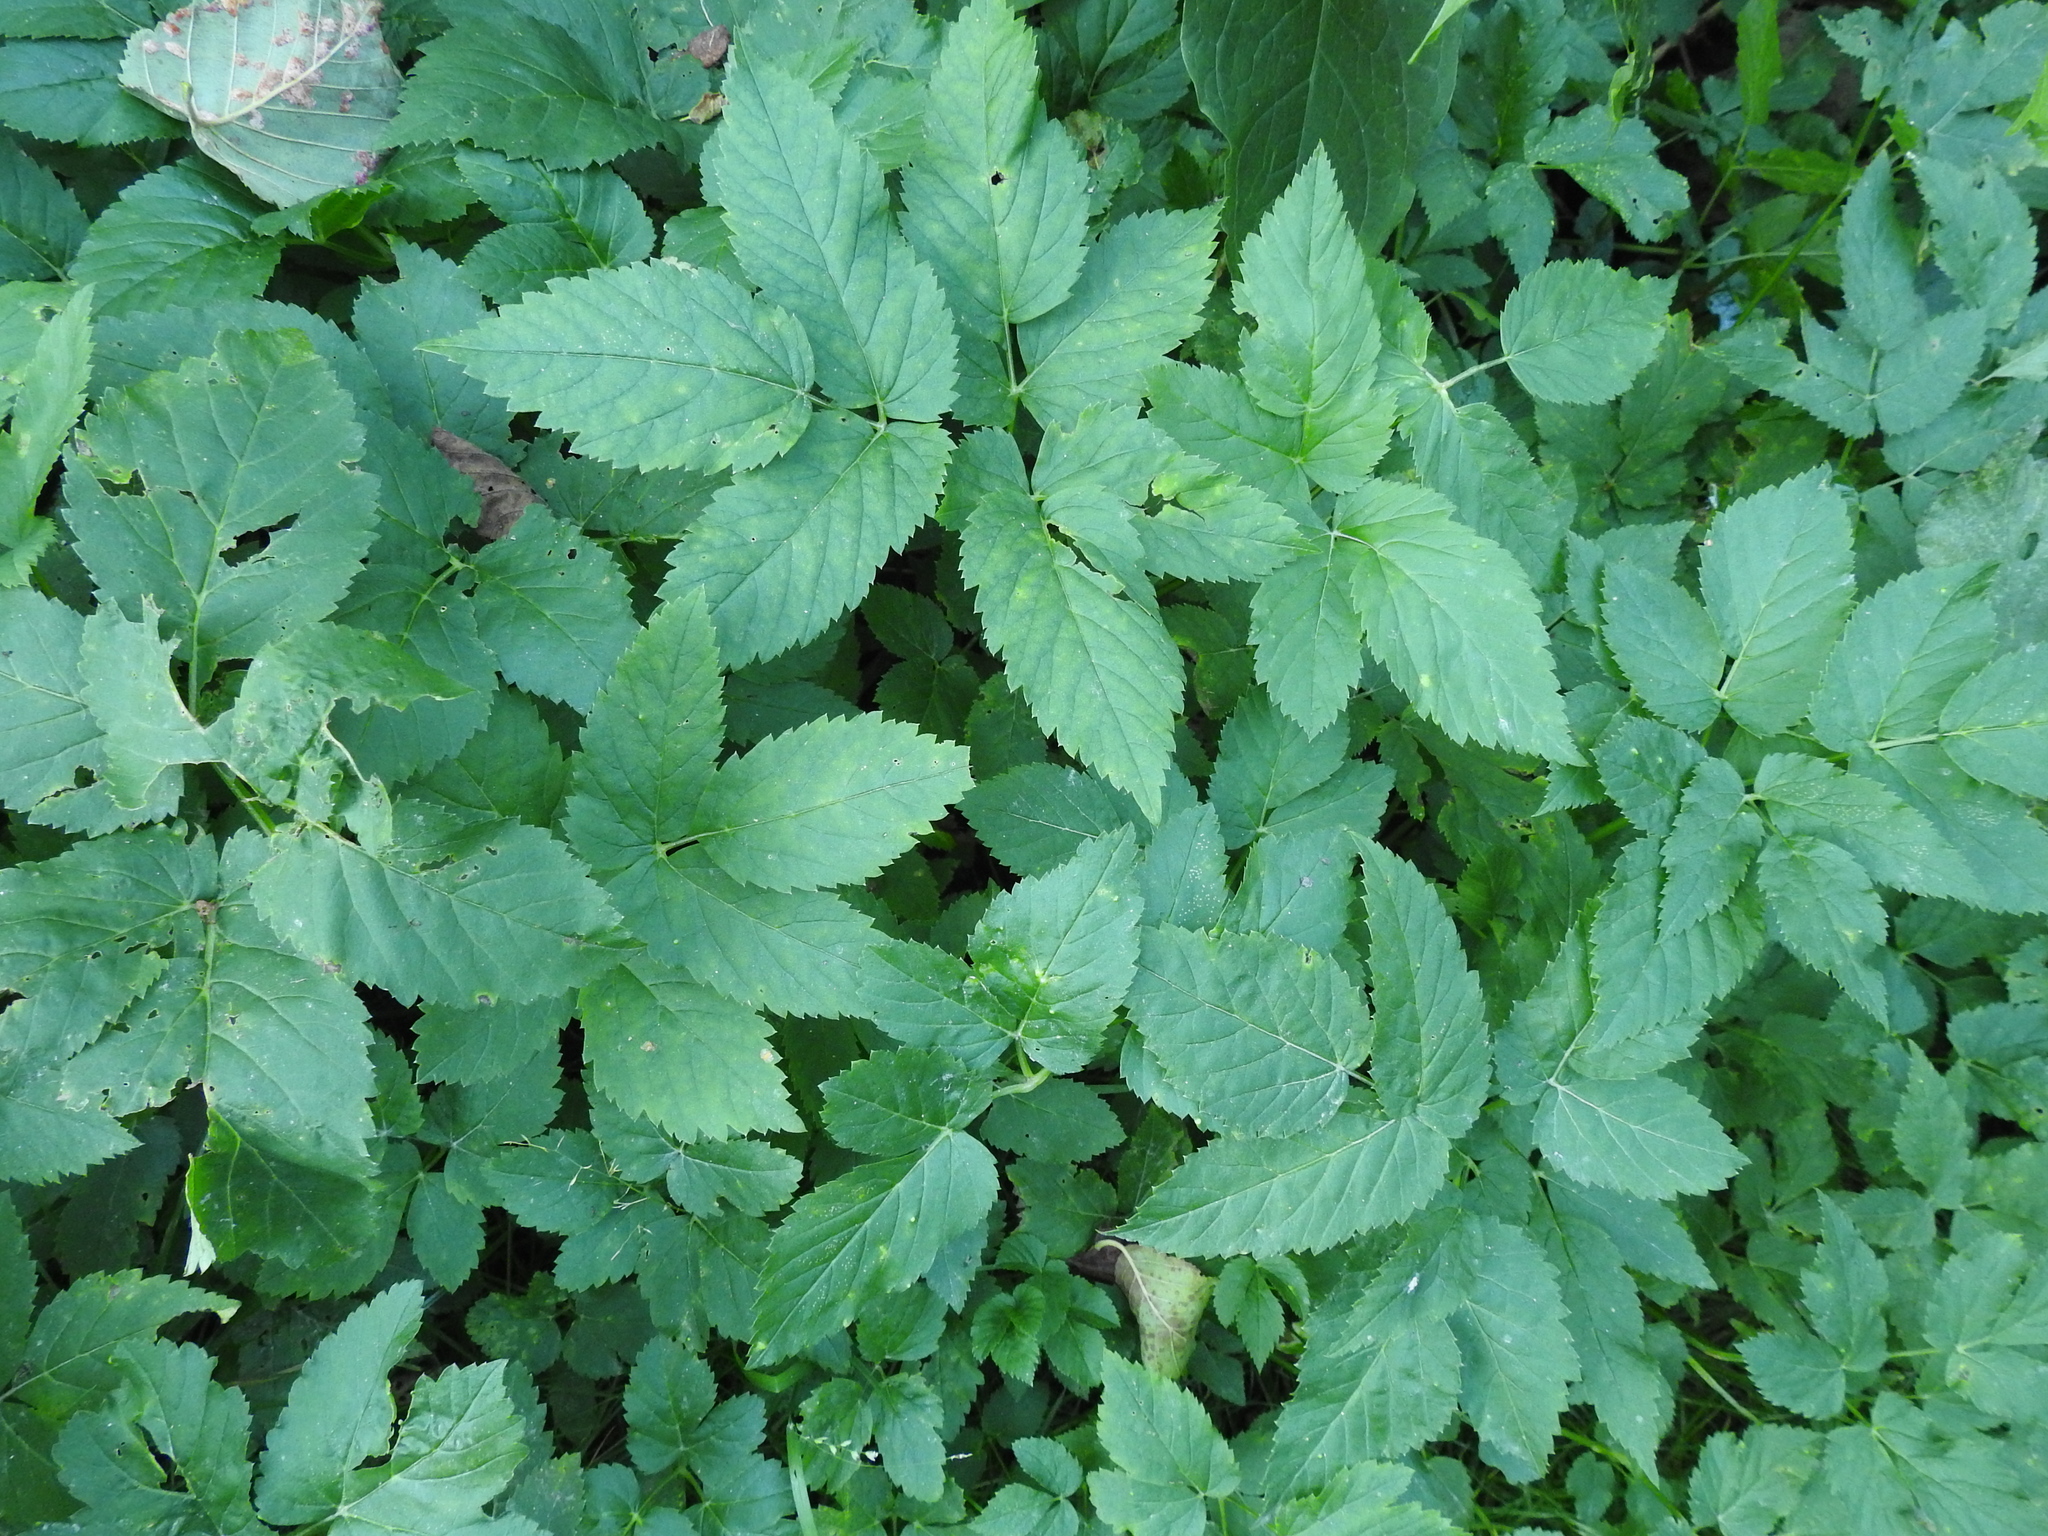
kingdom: Plantae
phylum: Tracheophyta
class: Magnoliopsida
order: Apiales
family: Apiaceae
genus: Aegopodium
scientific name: Aegopodium podagraria
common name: Ground-elder
